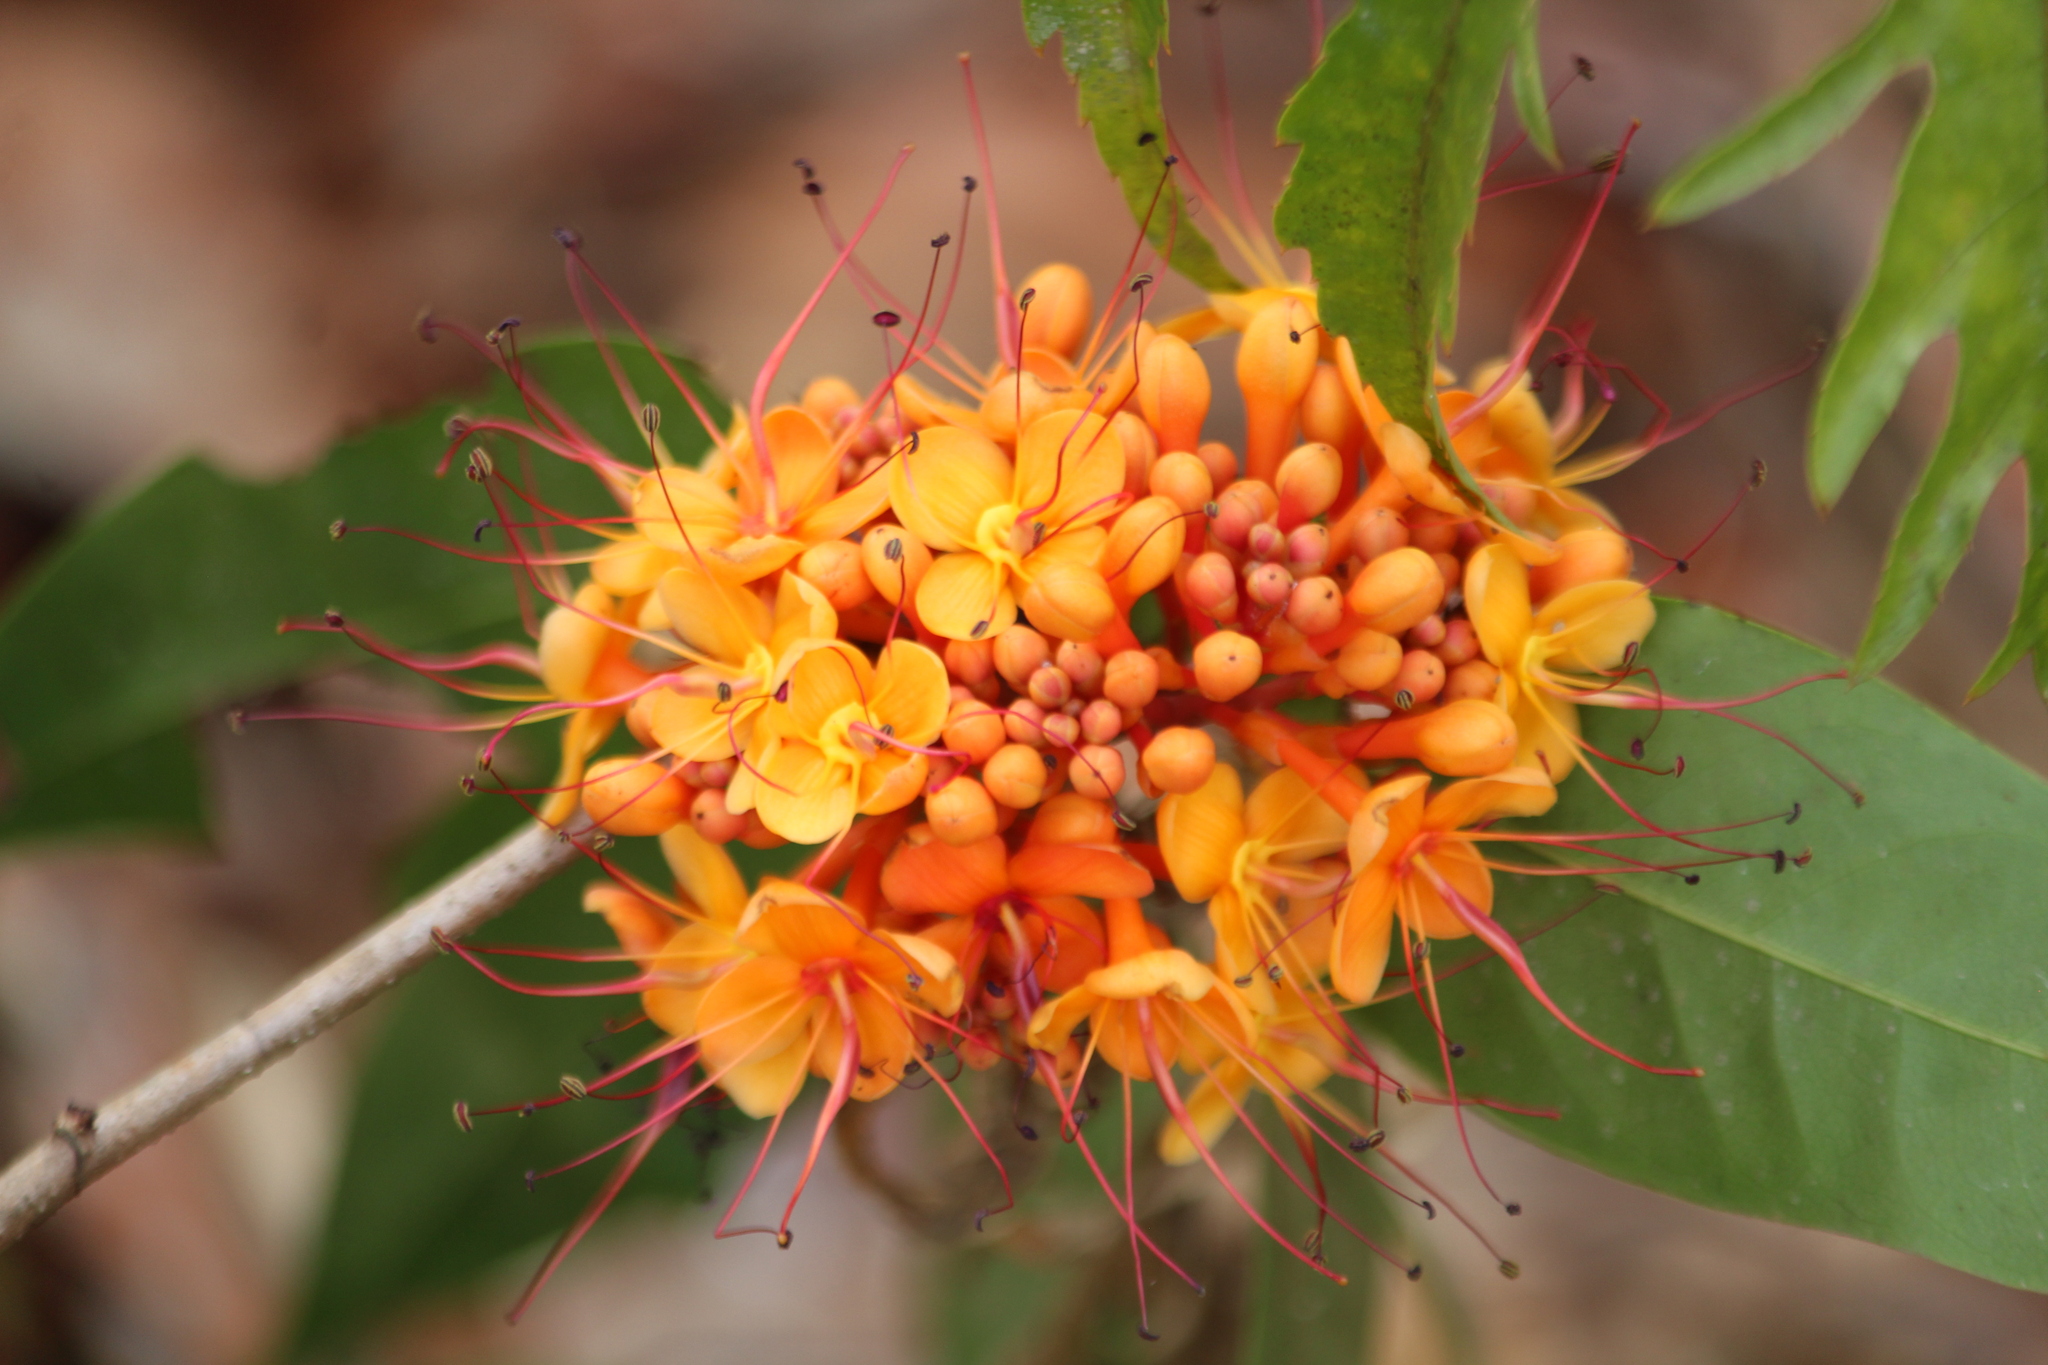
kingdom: Plantae
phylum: Tracheophyta
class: Magnoliopsida
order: Fabales
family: Fabaceae
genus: Saraca
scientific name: Saraca asoca
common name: Asoka-tree
